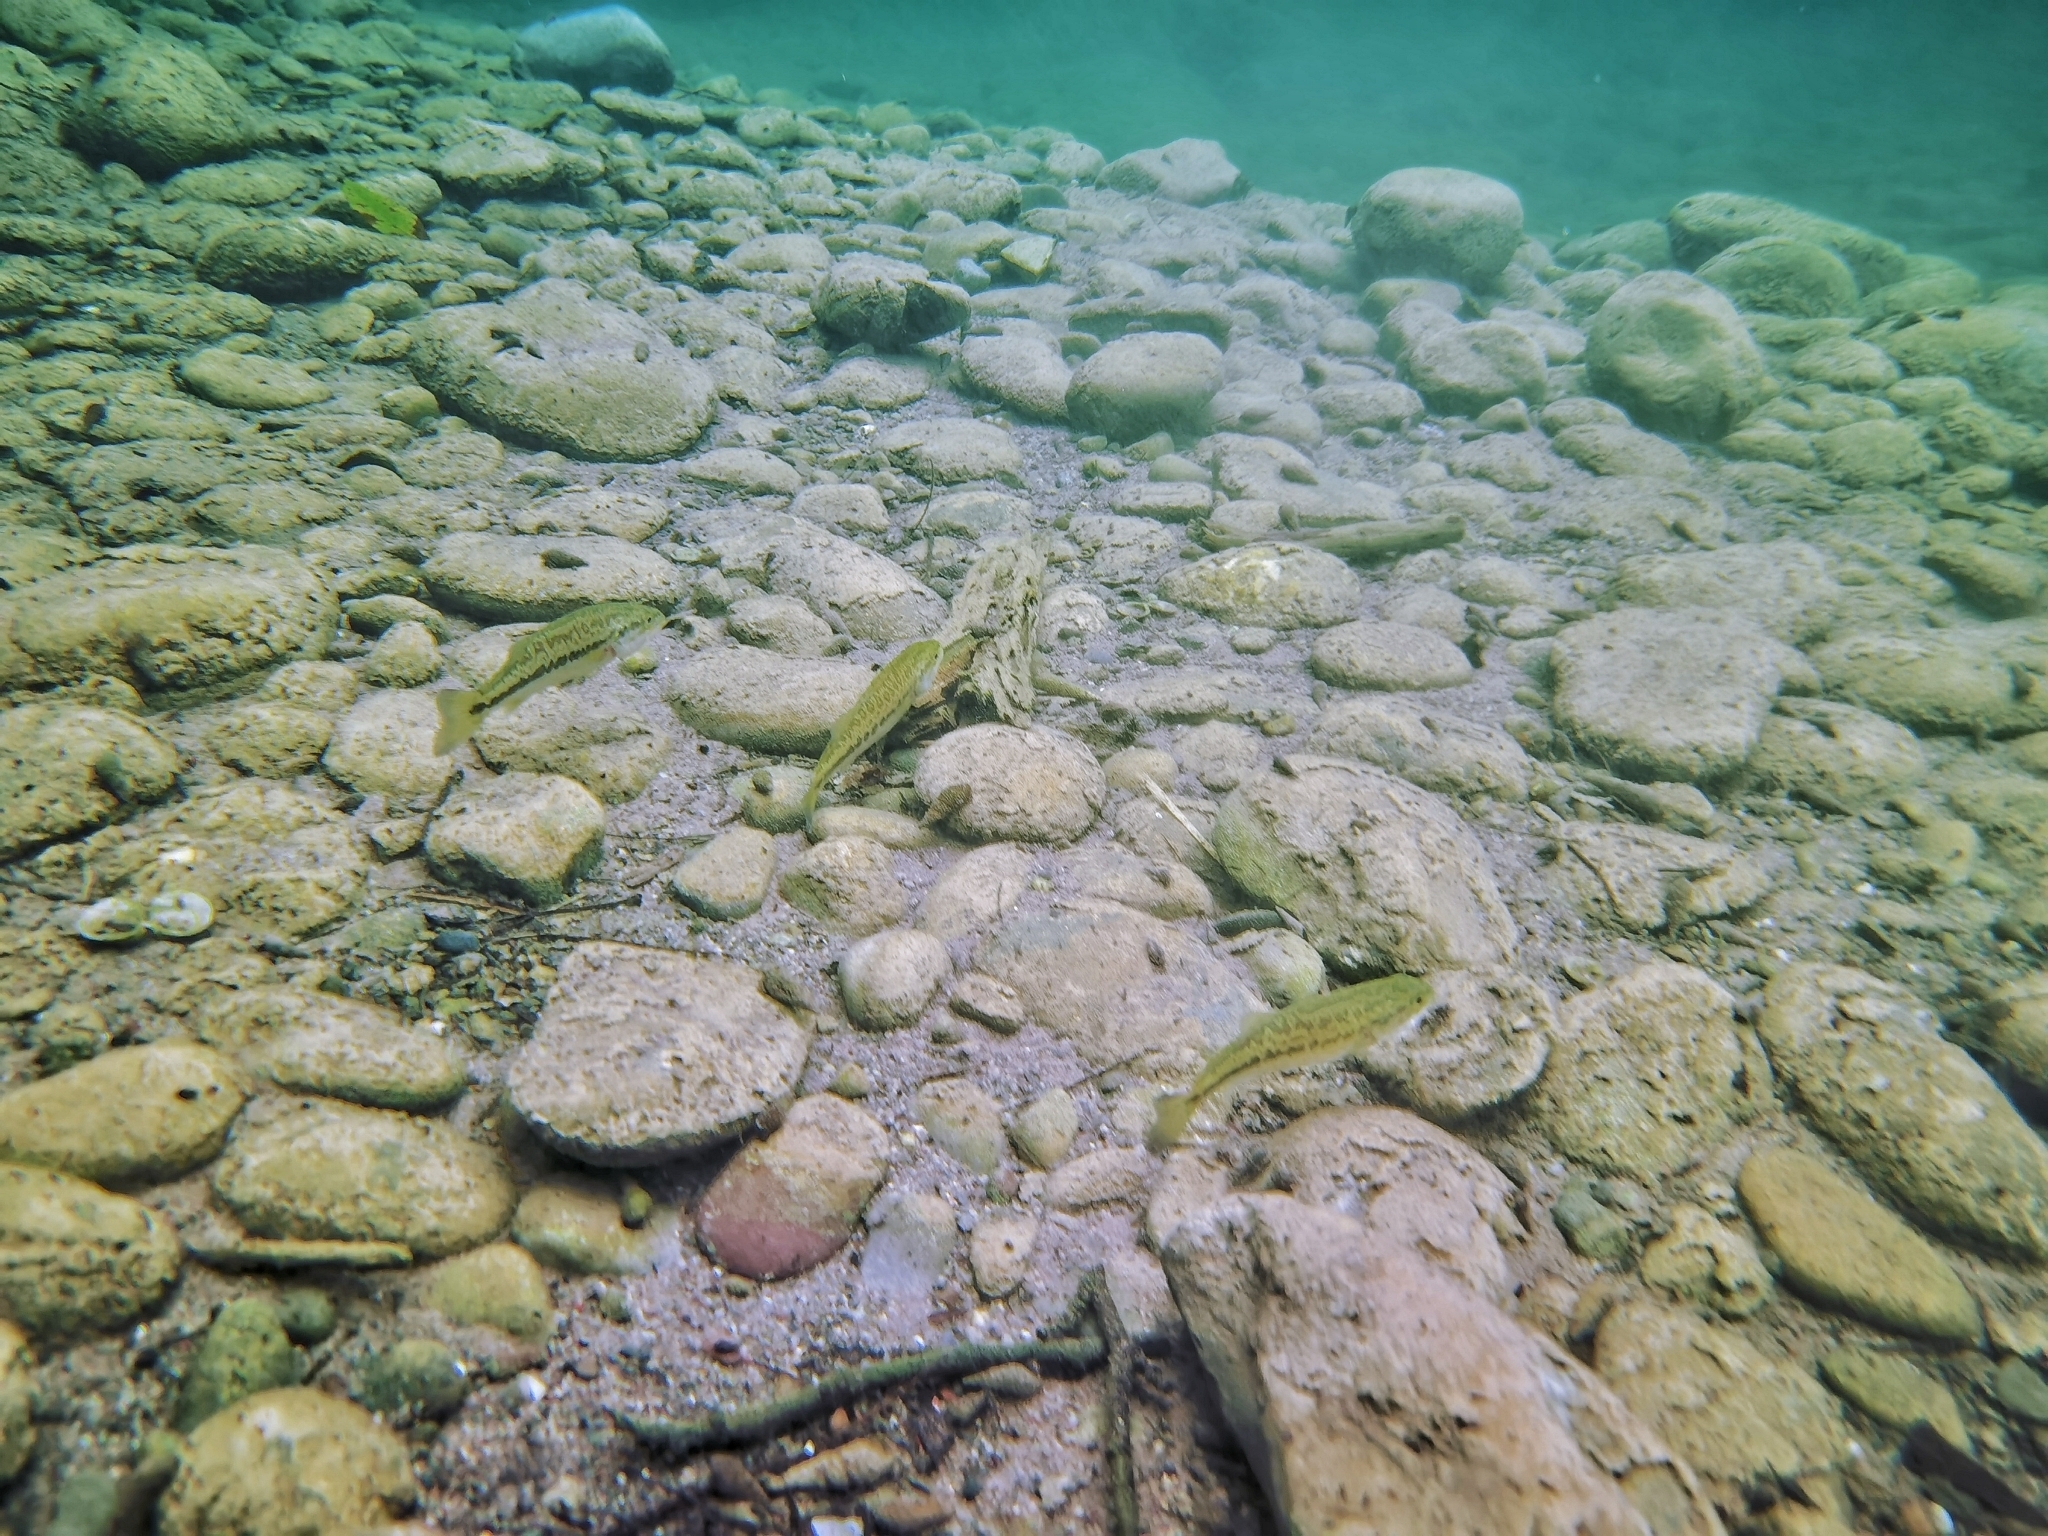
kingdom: Animalia
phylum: Chordata
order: Perciformes
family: Centrarchidae
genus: Micropterus
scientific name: Micropterus
